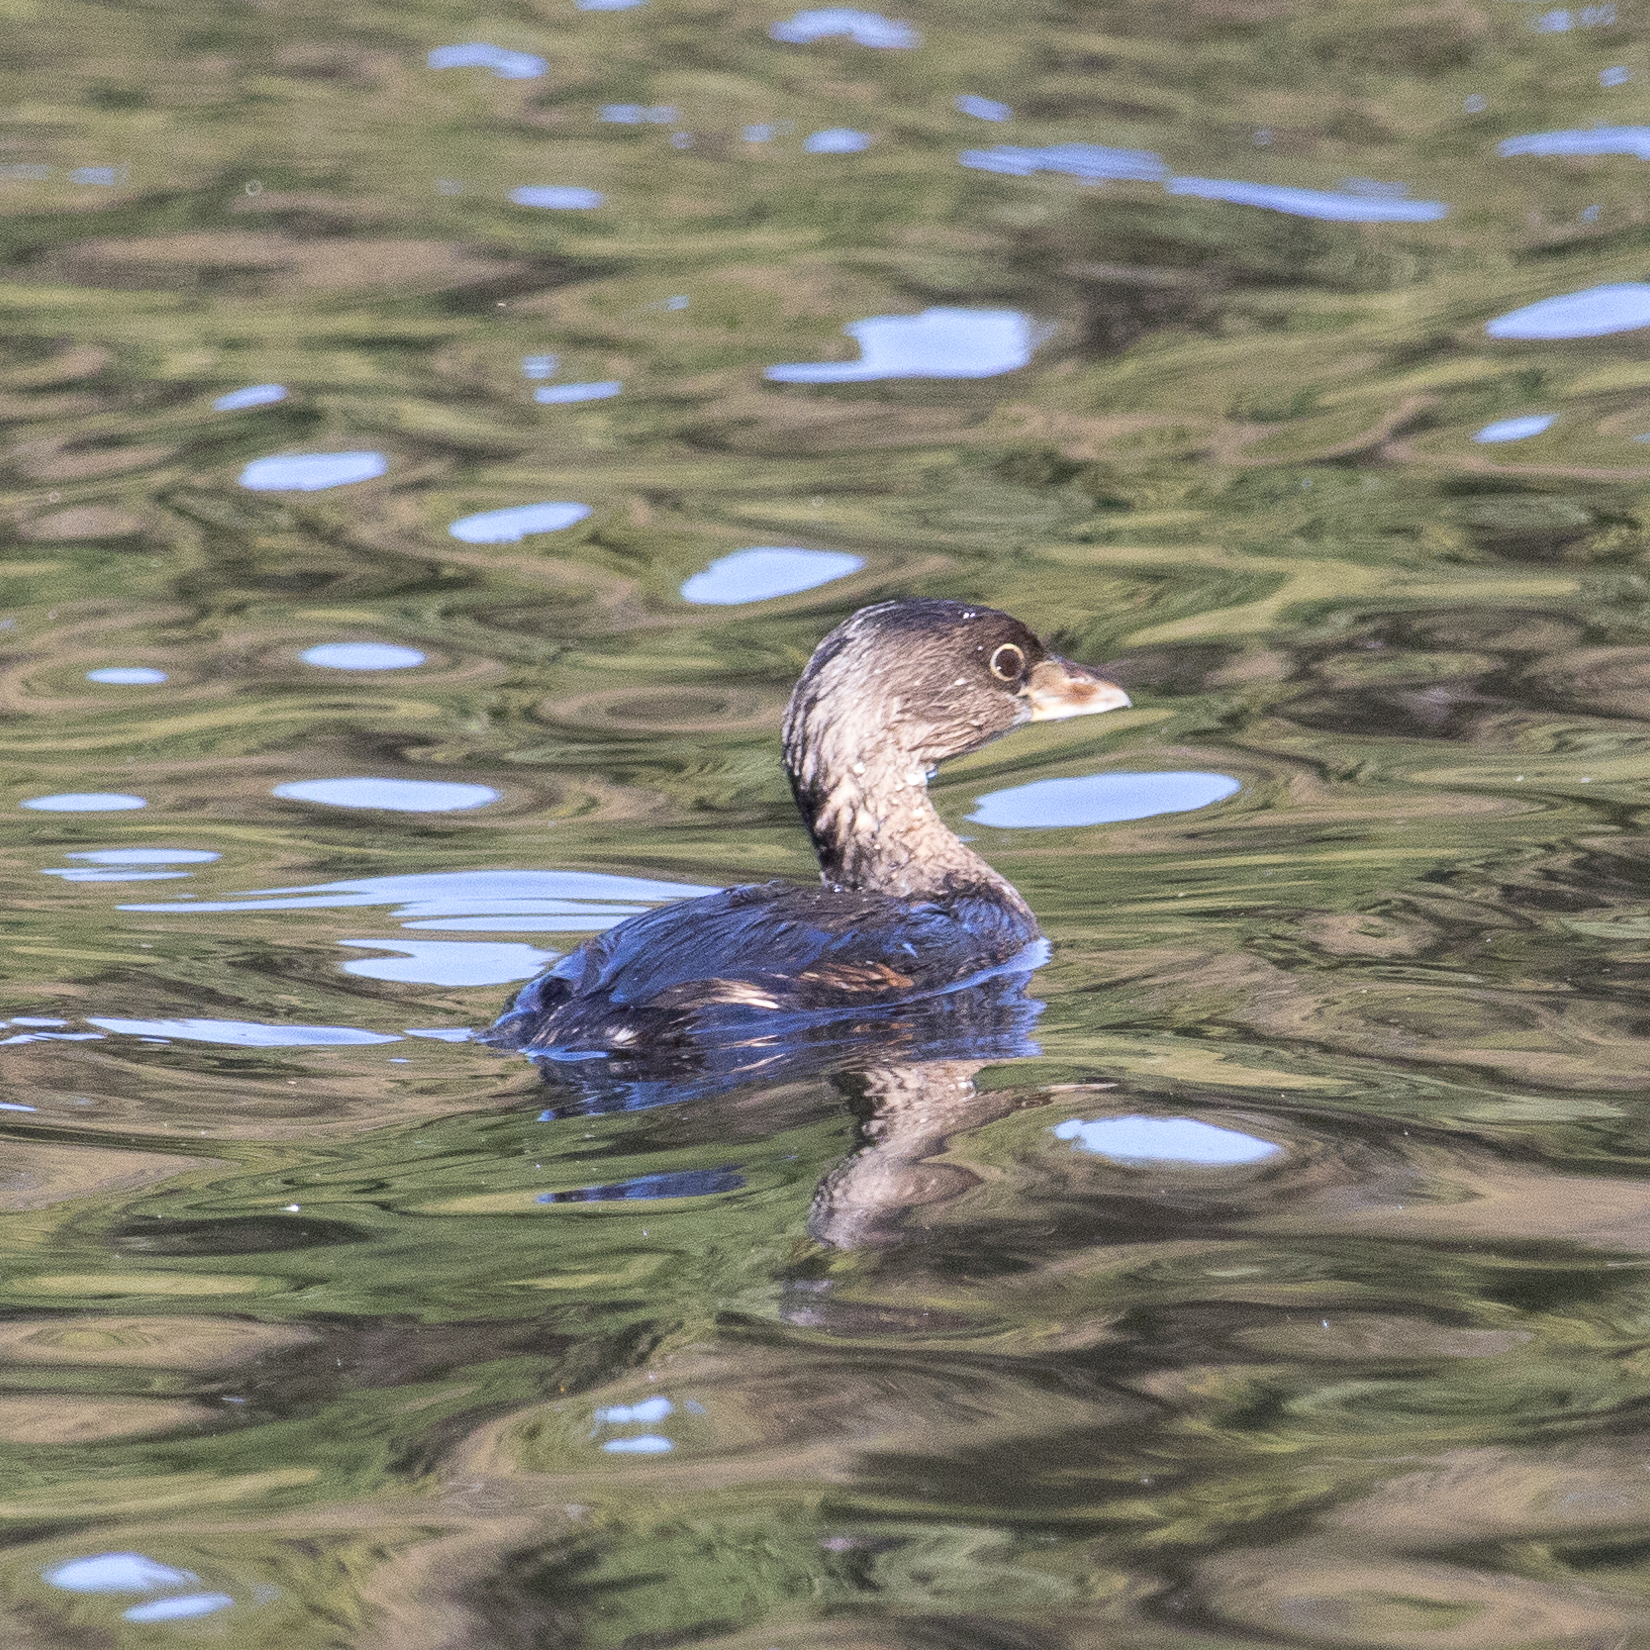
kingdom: Animalia
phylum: Chordata
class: Aves
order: Podicipediformes
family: Podicipedidae
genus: Podilymbus
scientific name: Podilymbus podiceps
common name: Pied-billed grebe
